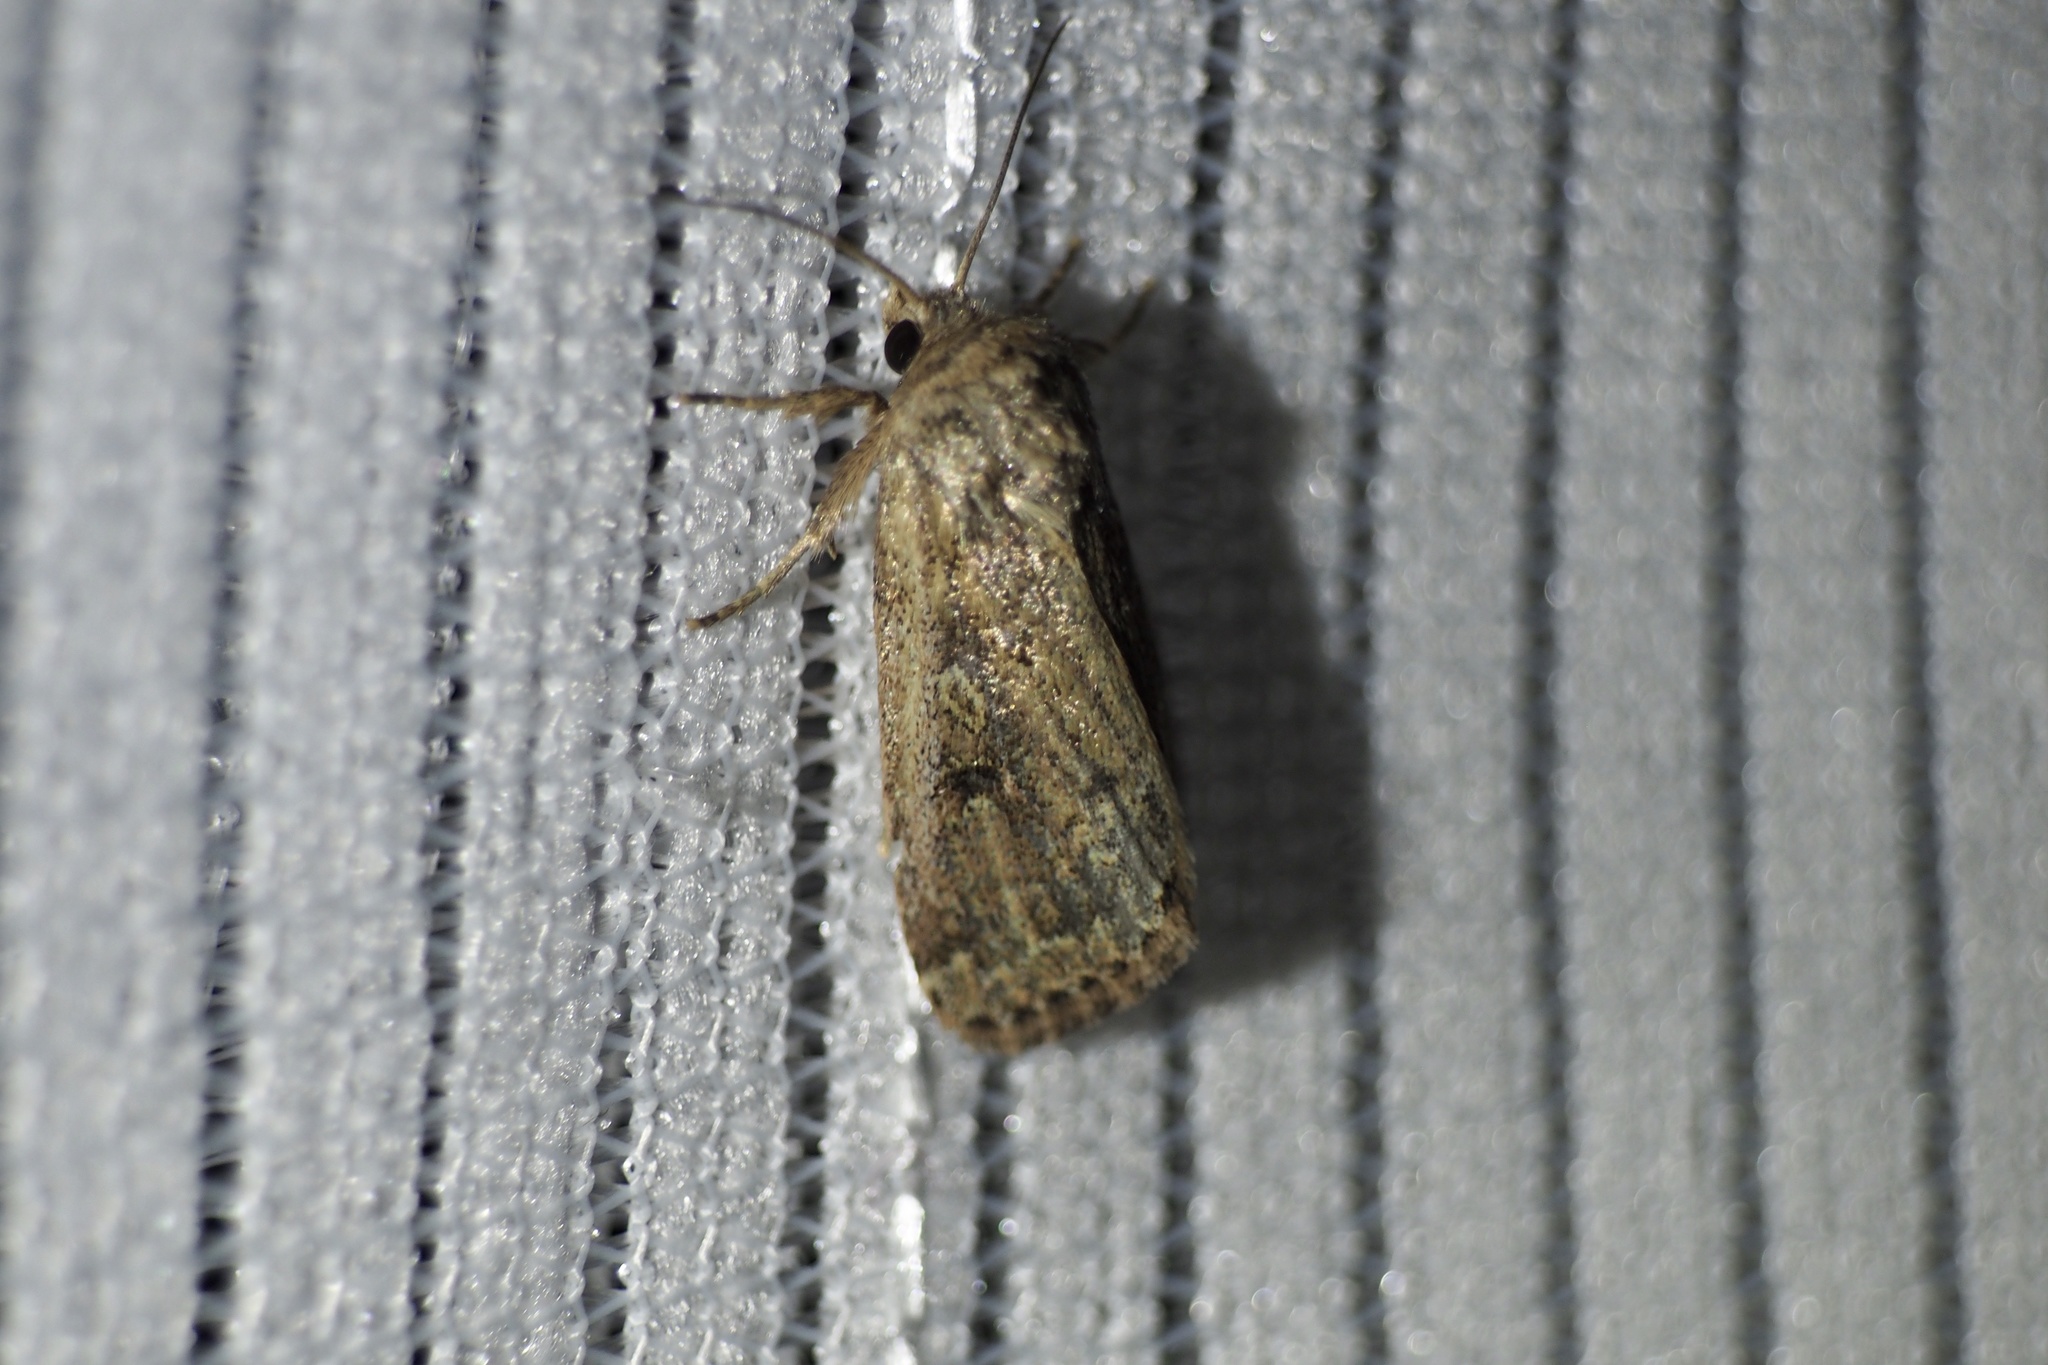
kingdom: Animalia
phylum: Arthropoda
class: Insecta
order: Lepidoptera
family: Noctuidae
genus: Spodoptera
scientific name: Spodoptera depravata
